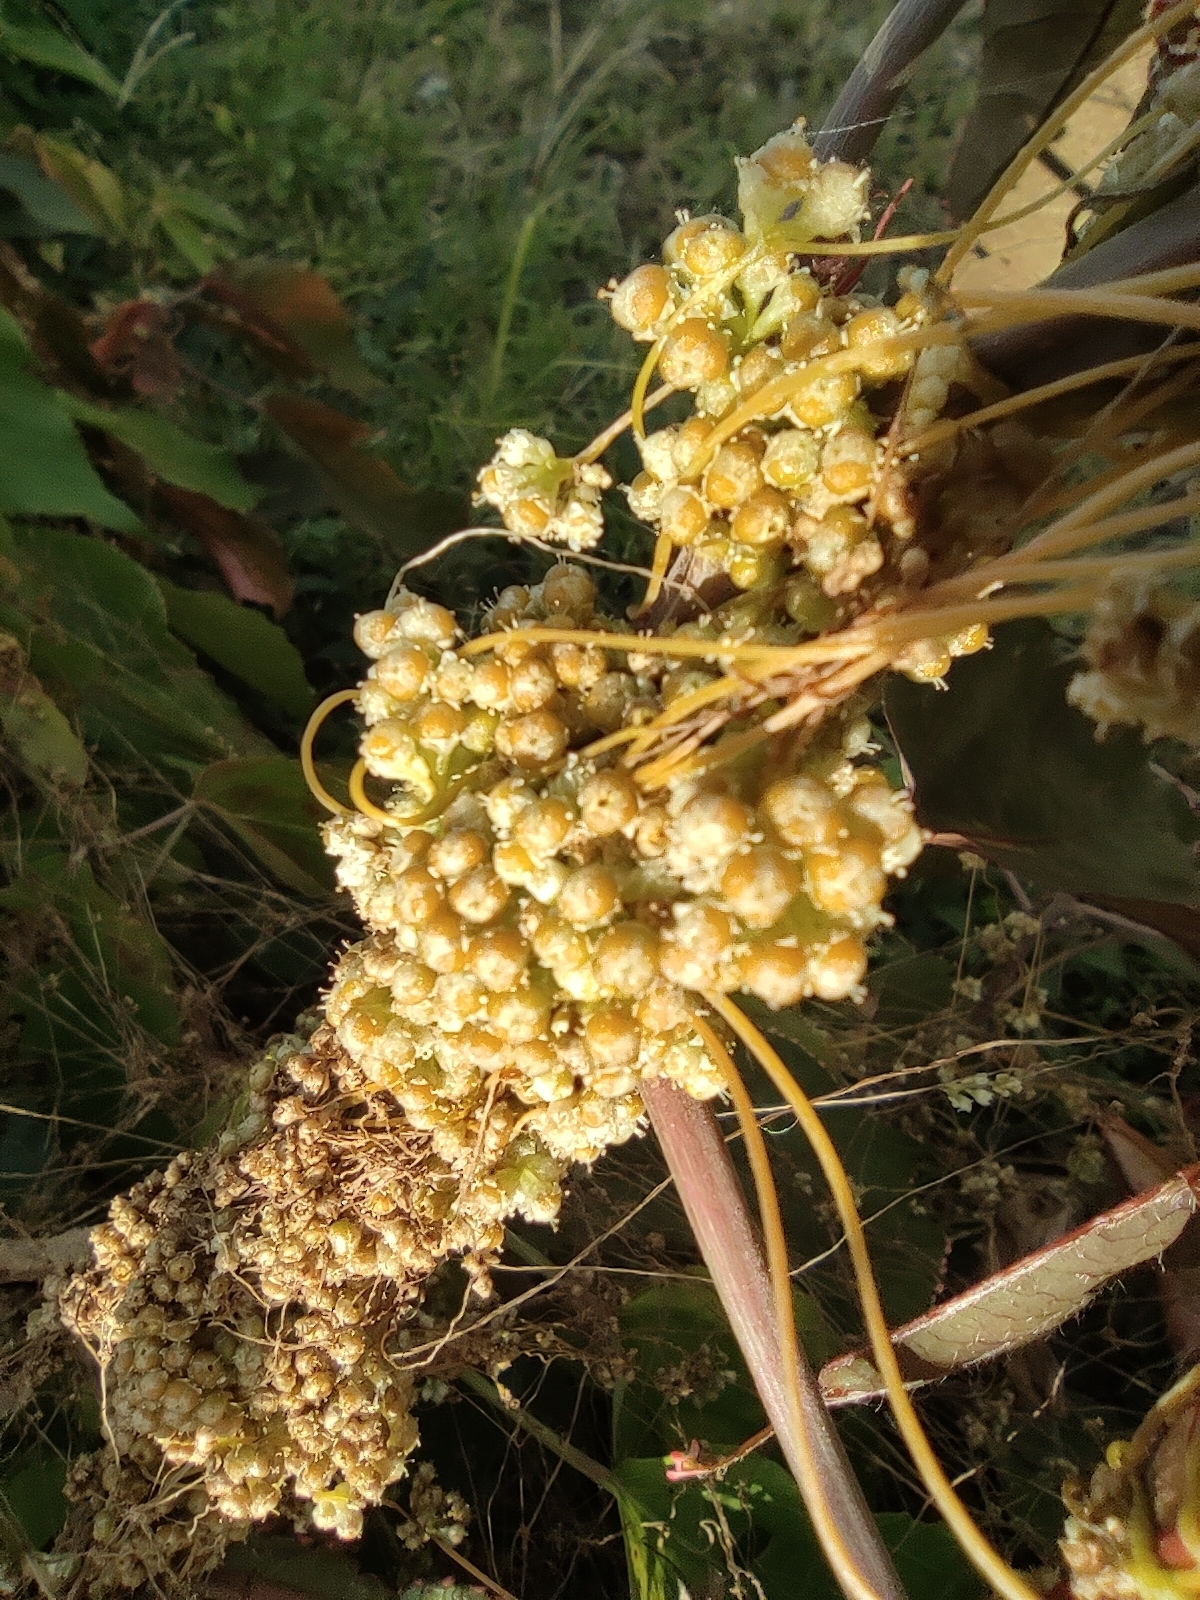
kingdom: Plantae
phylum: Tracheophyta
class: Magnoliopsida
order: Solanales
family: Convolvulaceae
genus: Cuscuta
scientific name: Cuscuta campestris
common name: Yellow dodder
